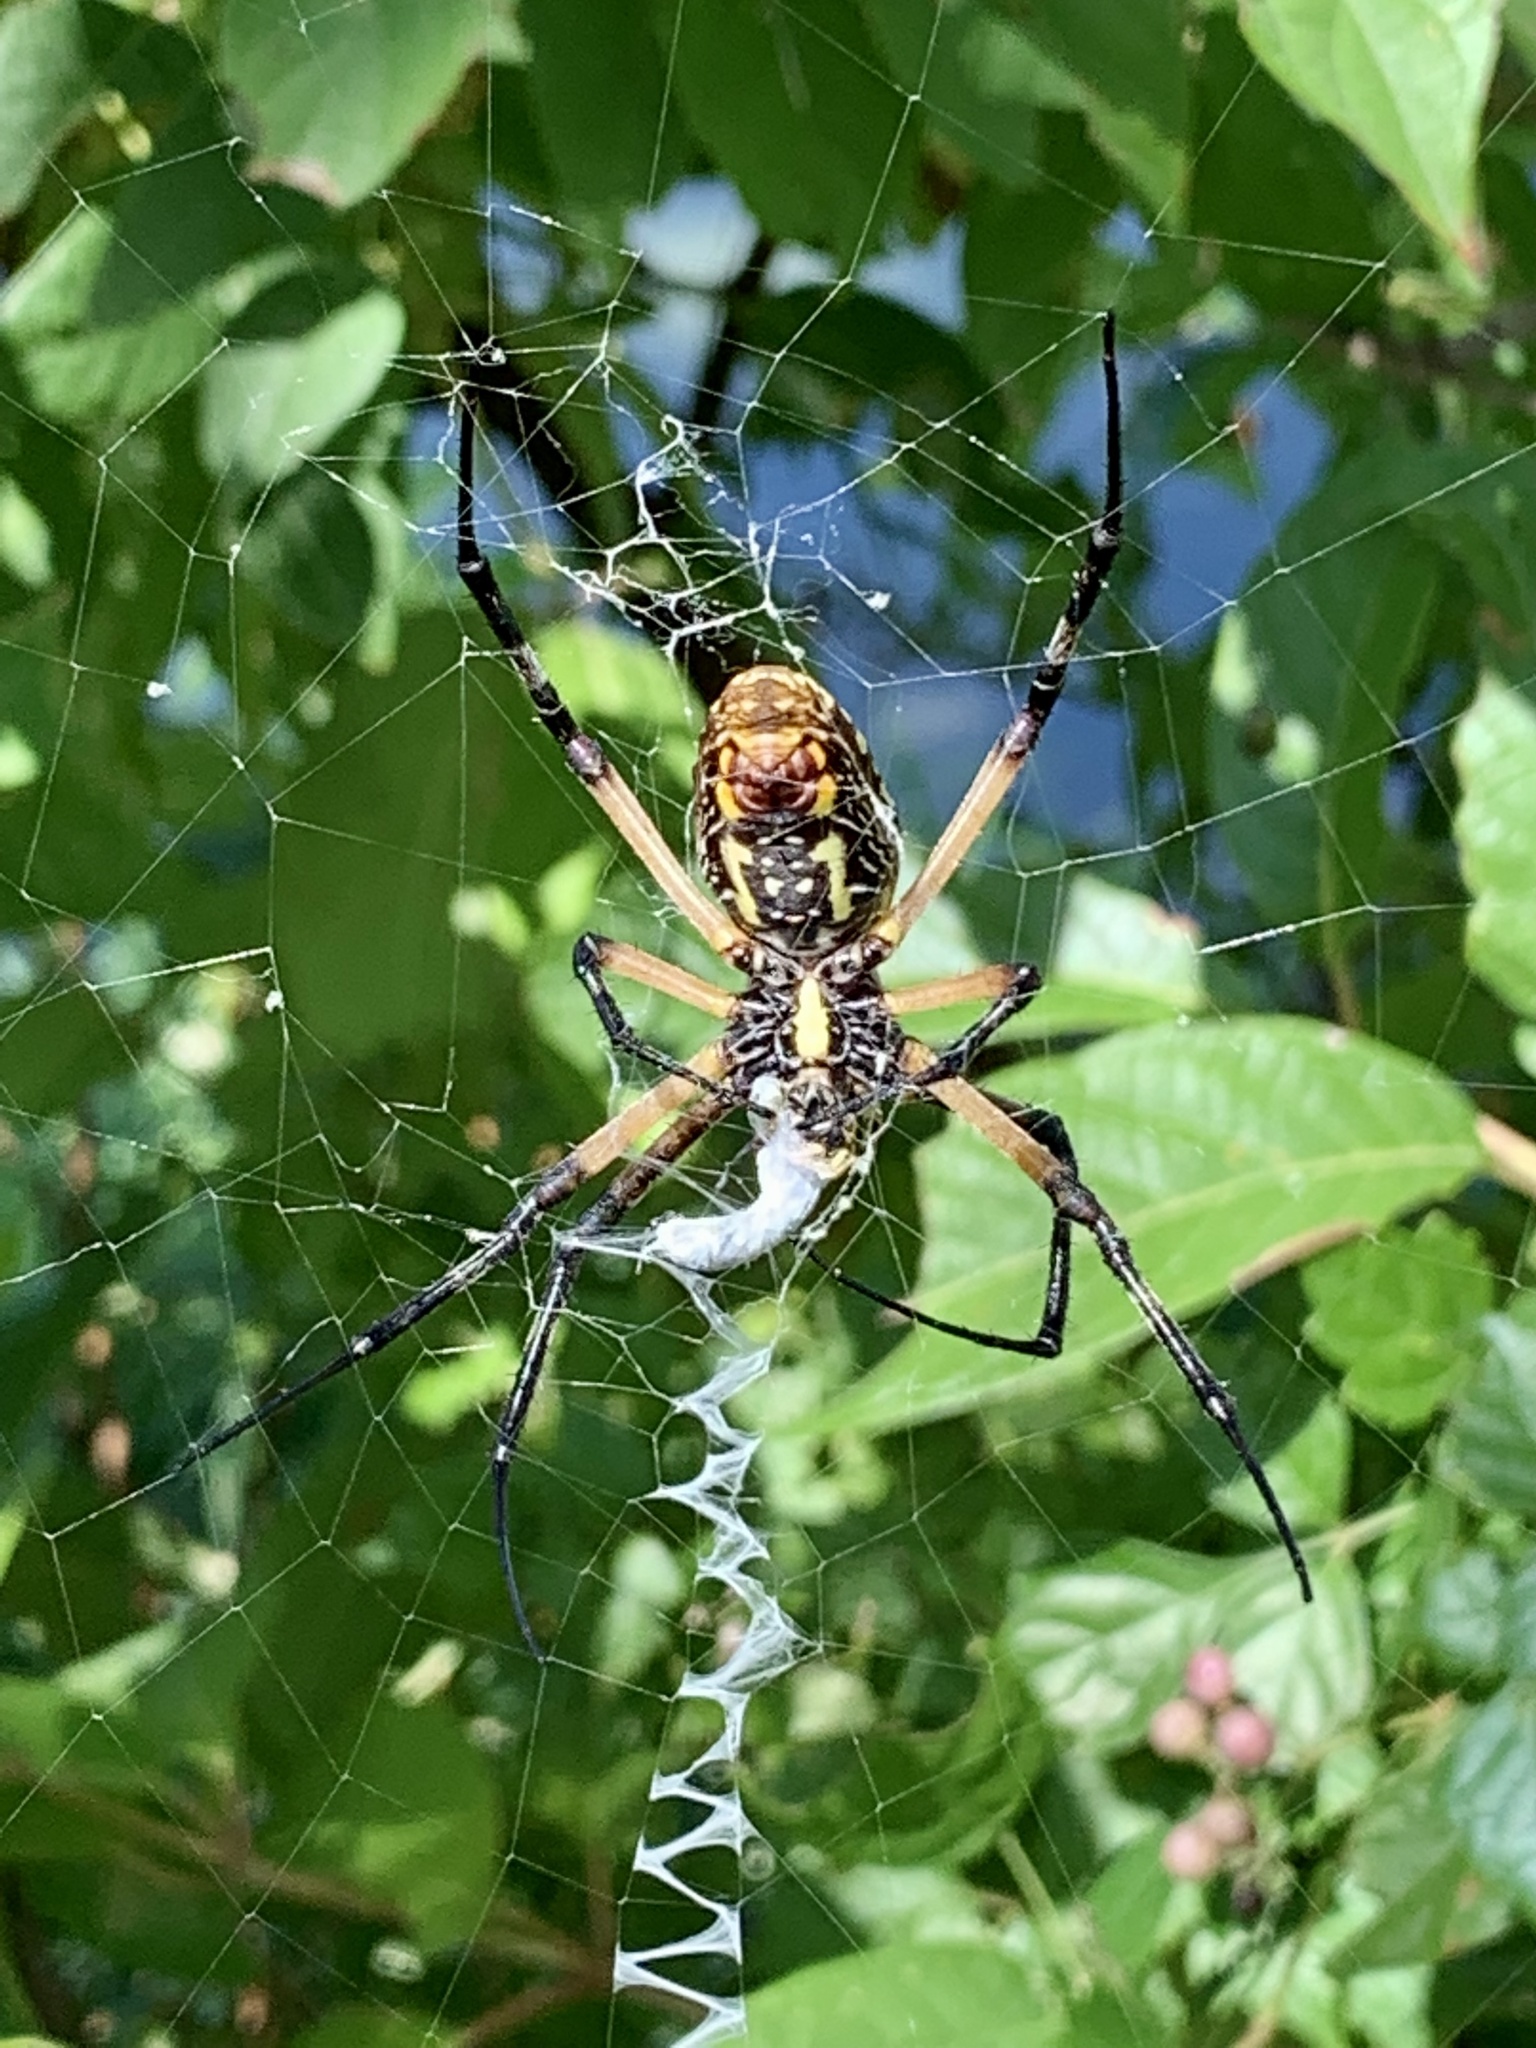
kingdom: Animalia
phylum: Arthropoda
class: Arachnida
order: Araneae
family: Araneidae
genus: Argiope
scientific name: Argiope aurantia
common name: Orb weavers
